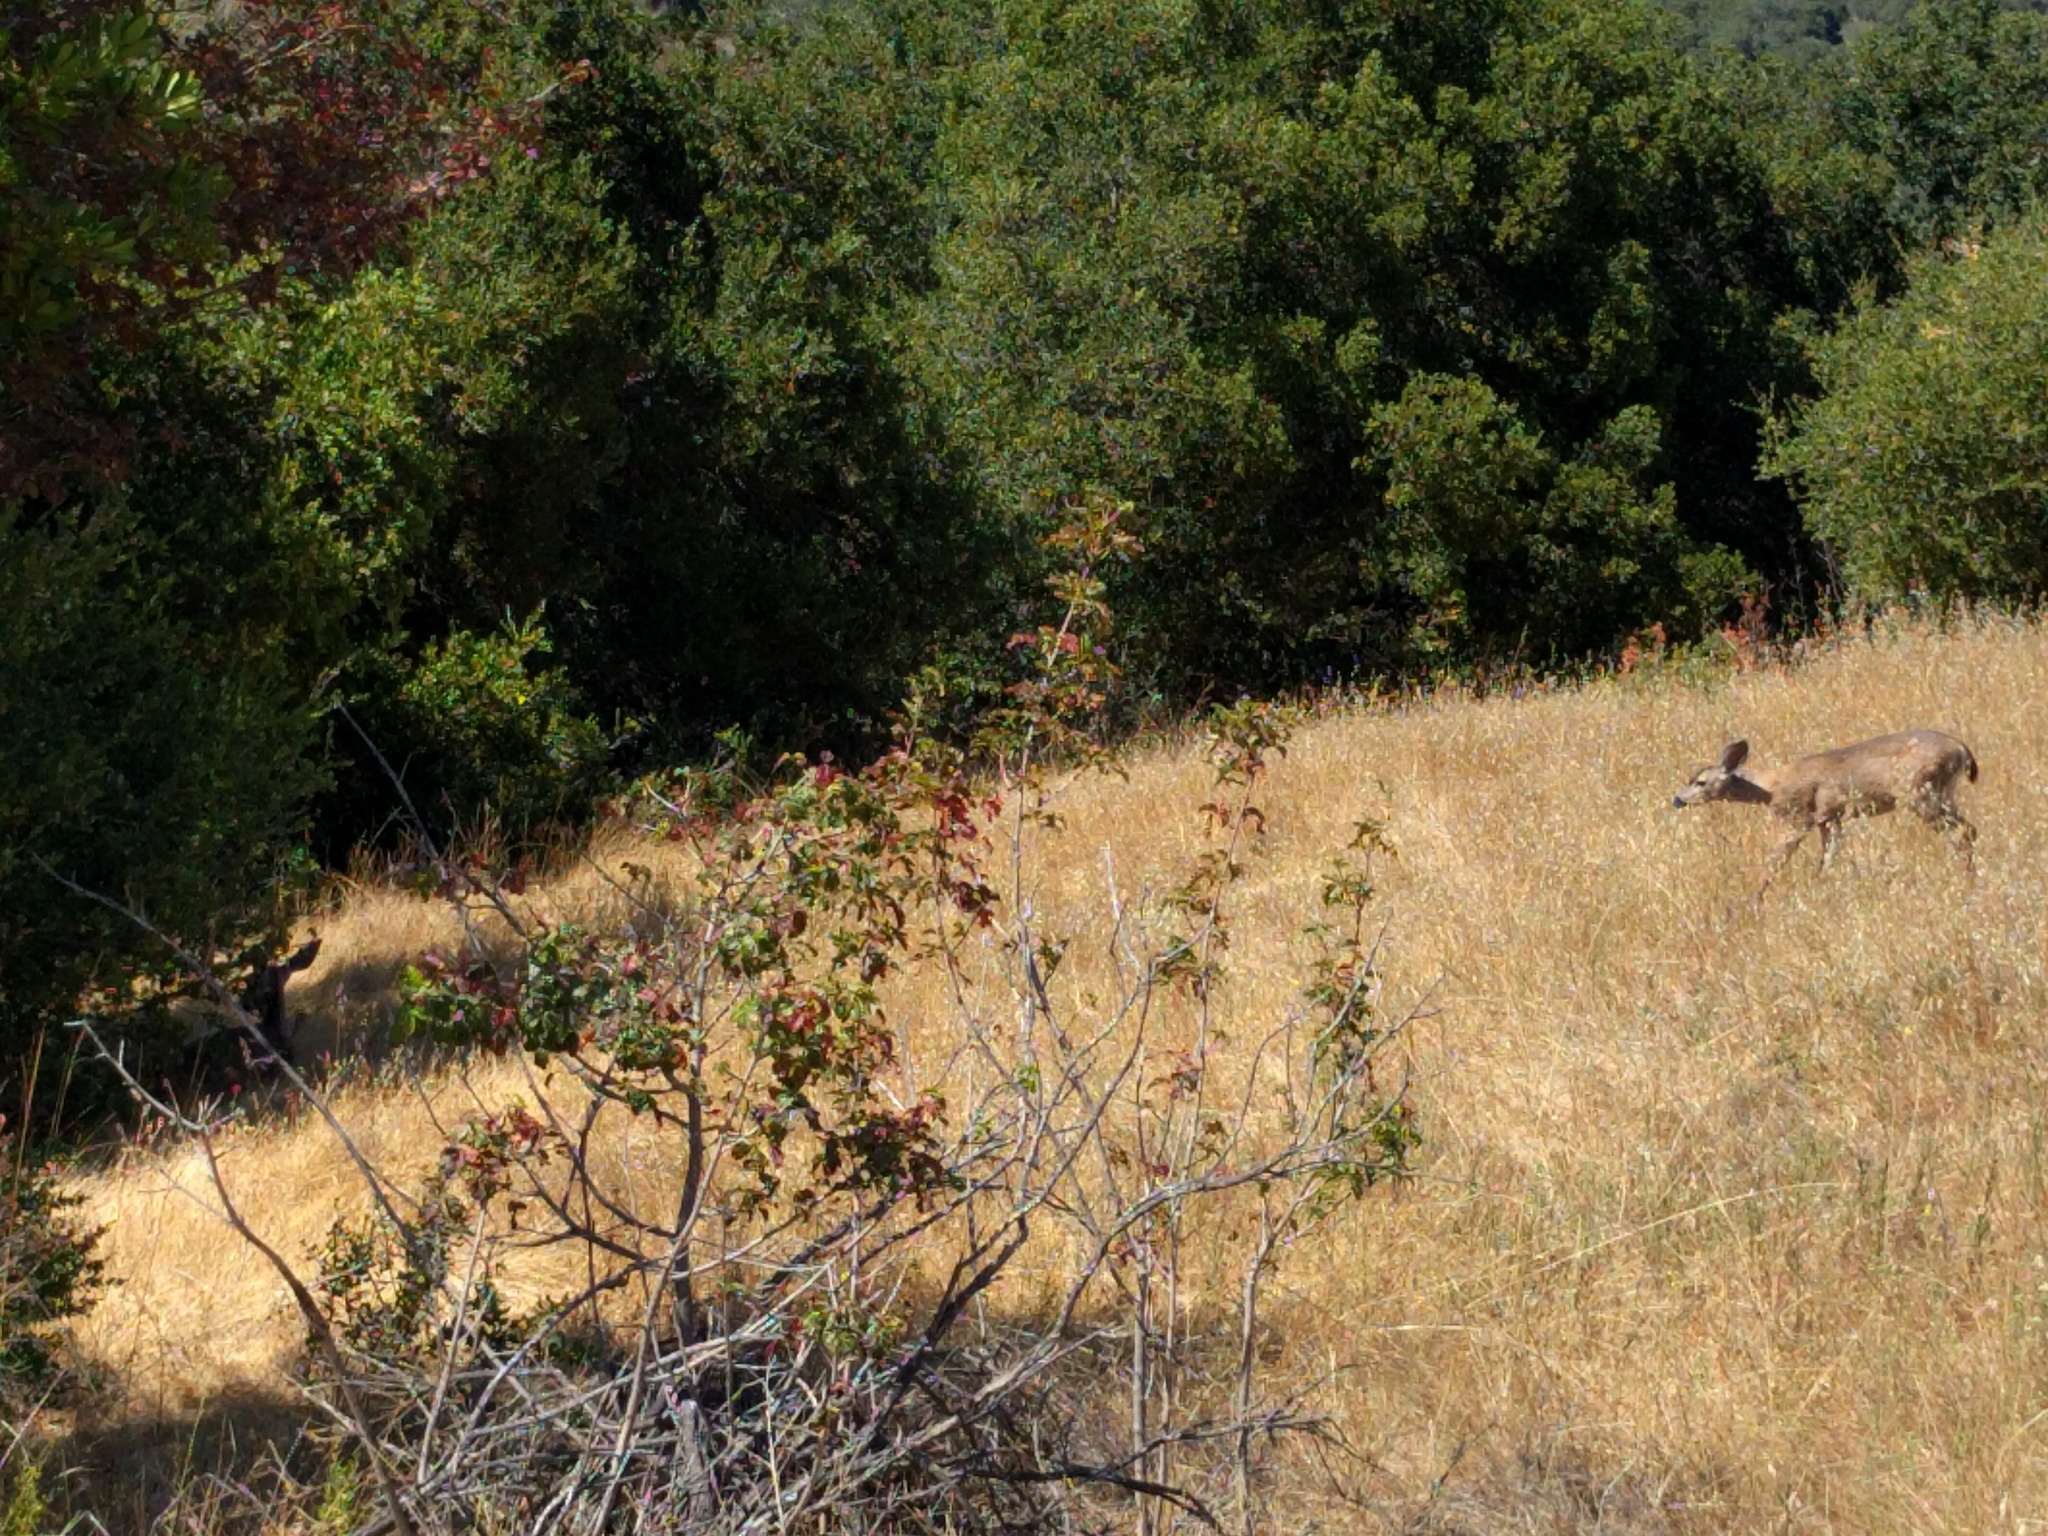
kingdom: Animalia
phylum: Chordata
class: Mammalia
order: Artiodactyla
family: Cervidae
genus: Odocoileus
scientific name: Odocoileus hemionus
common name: Mule deer
